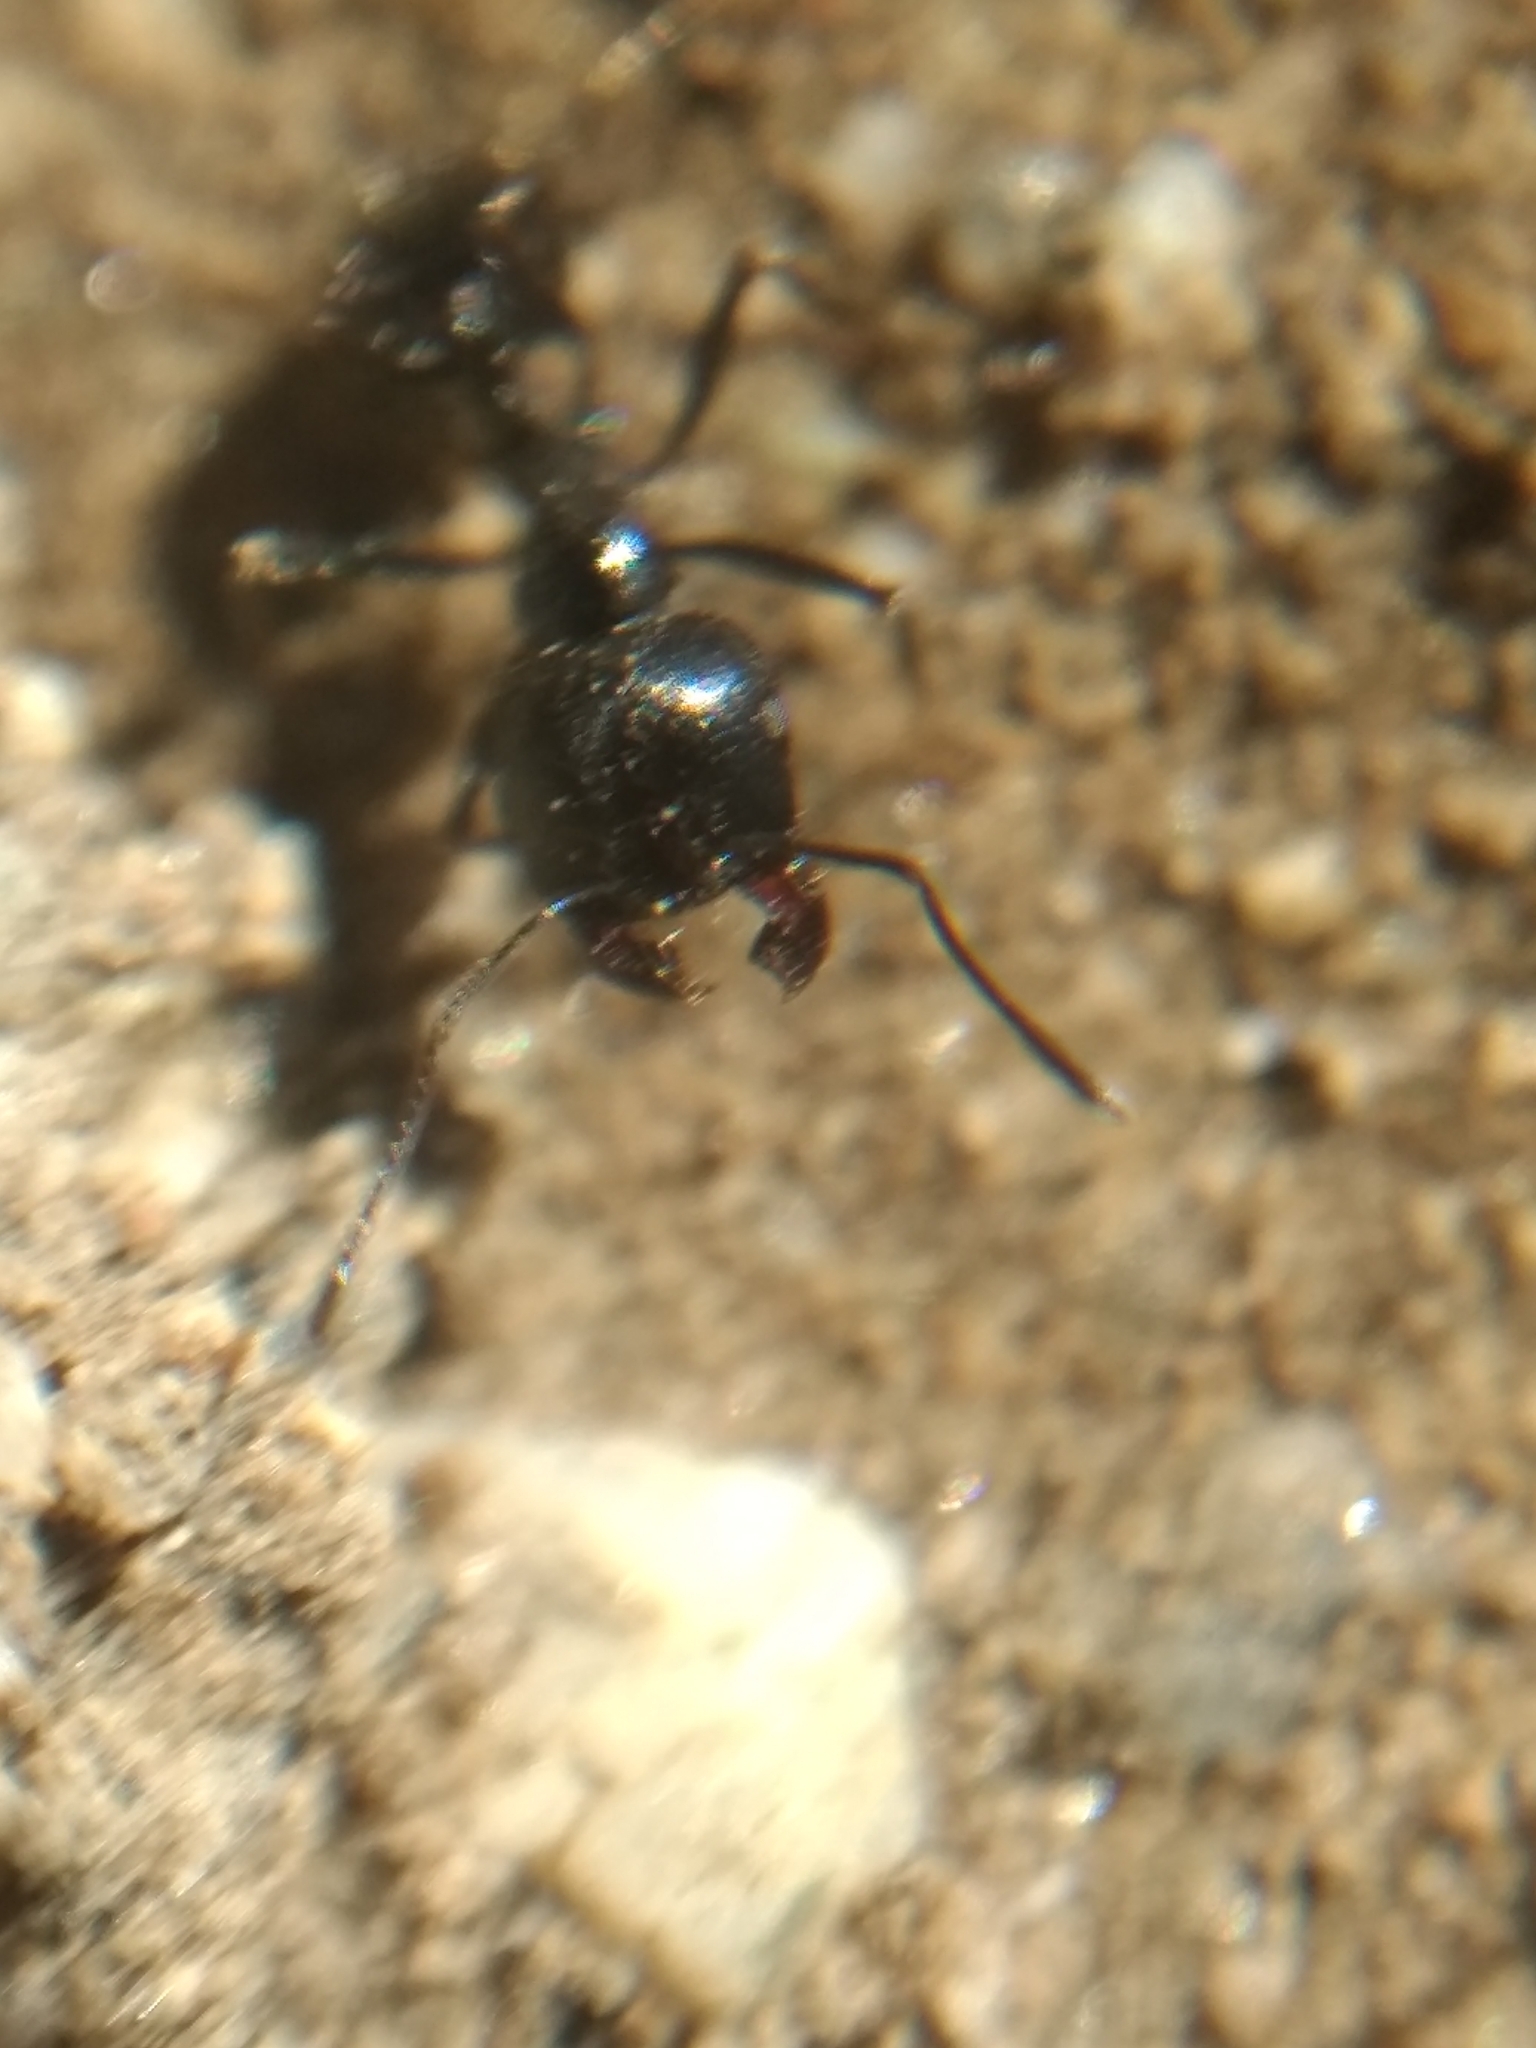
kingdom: Animalia
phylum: Arthropoda
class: Insecta
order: Hymenoptera
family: Formicidae
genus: Messor
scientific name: Messor pergandei
